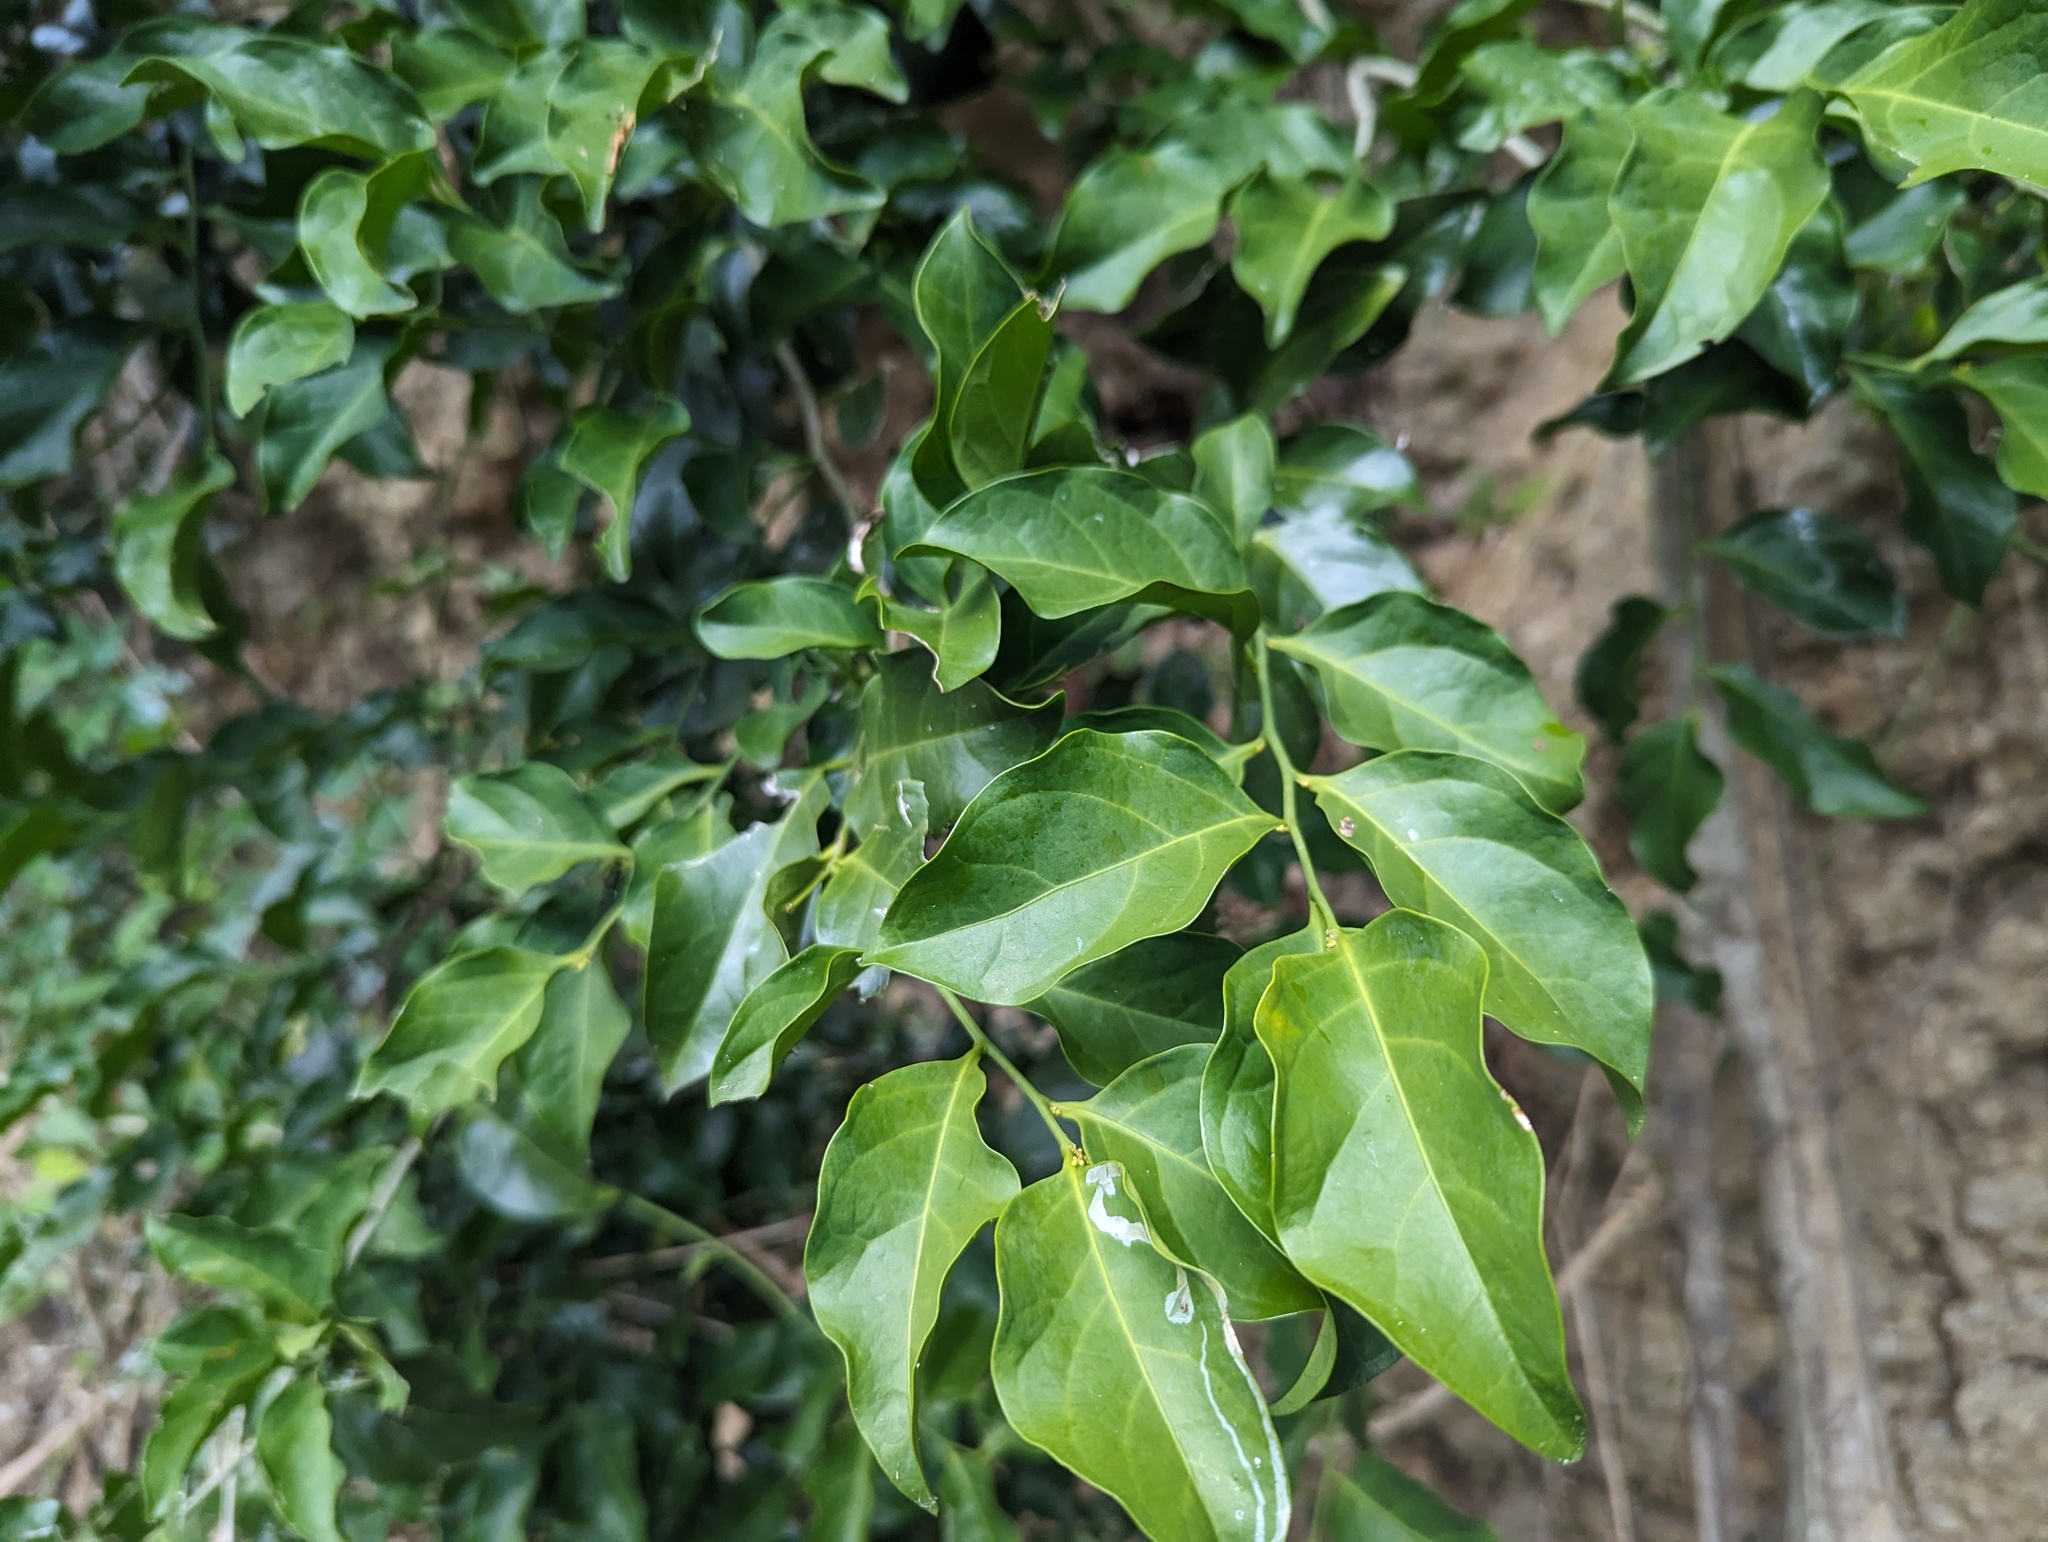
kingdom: Plantae
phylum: Tracheophyta
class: Magnoliopsida
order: Santalales
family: Opiliaceae
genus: Champereia
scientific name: Champereia manillana
